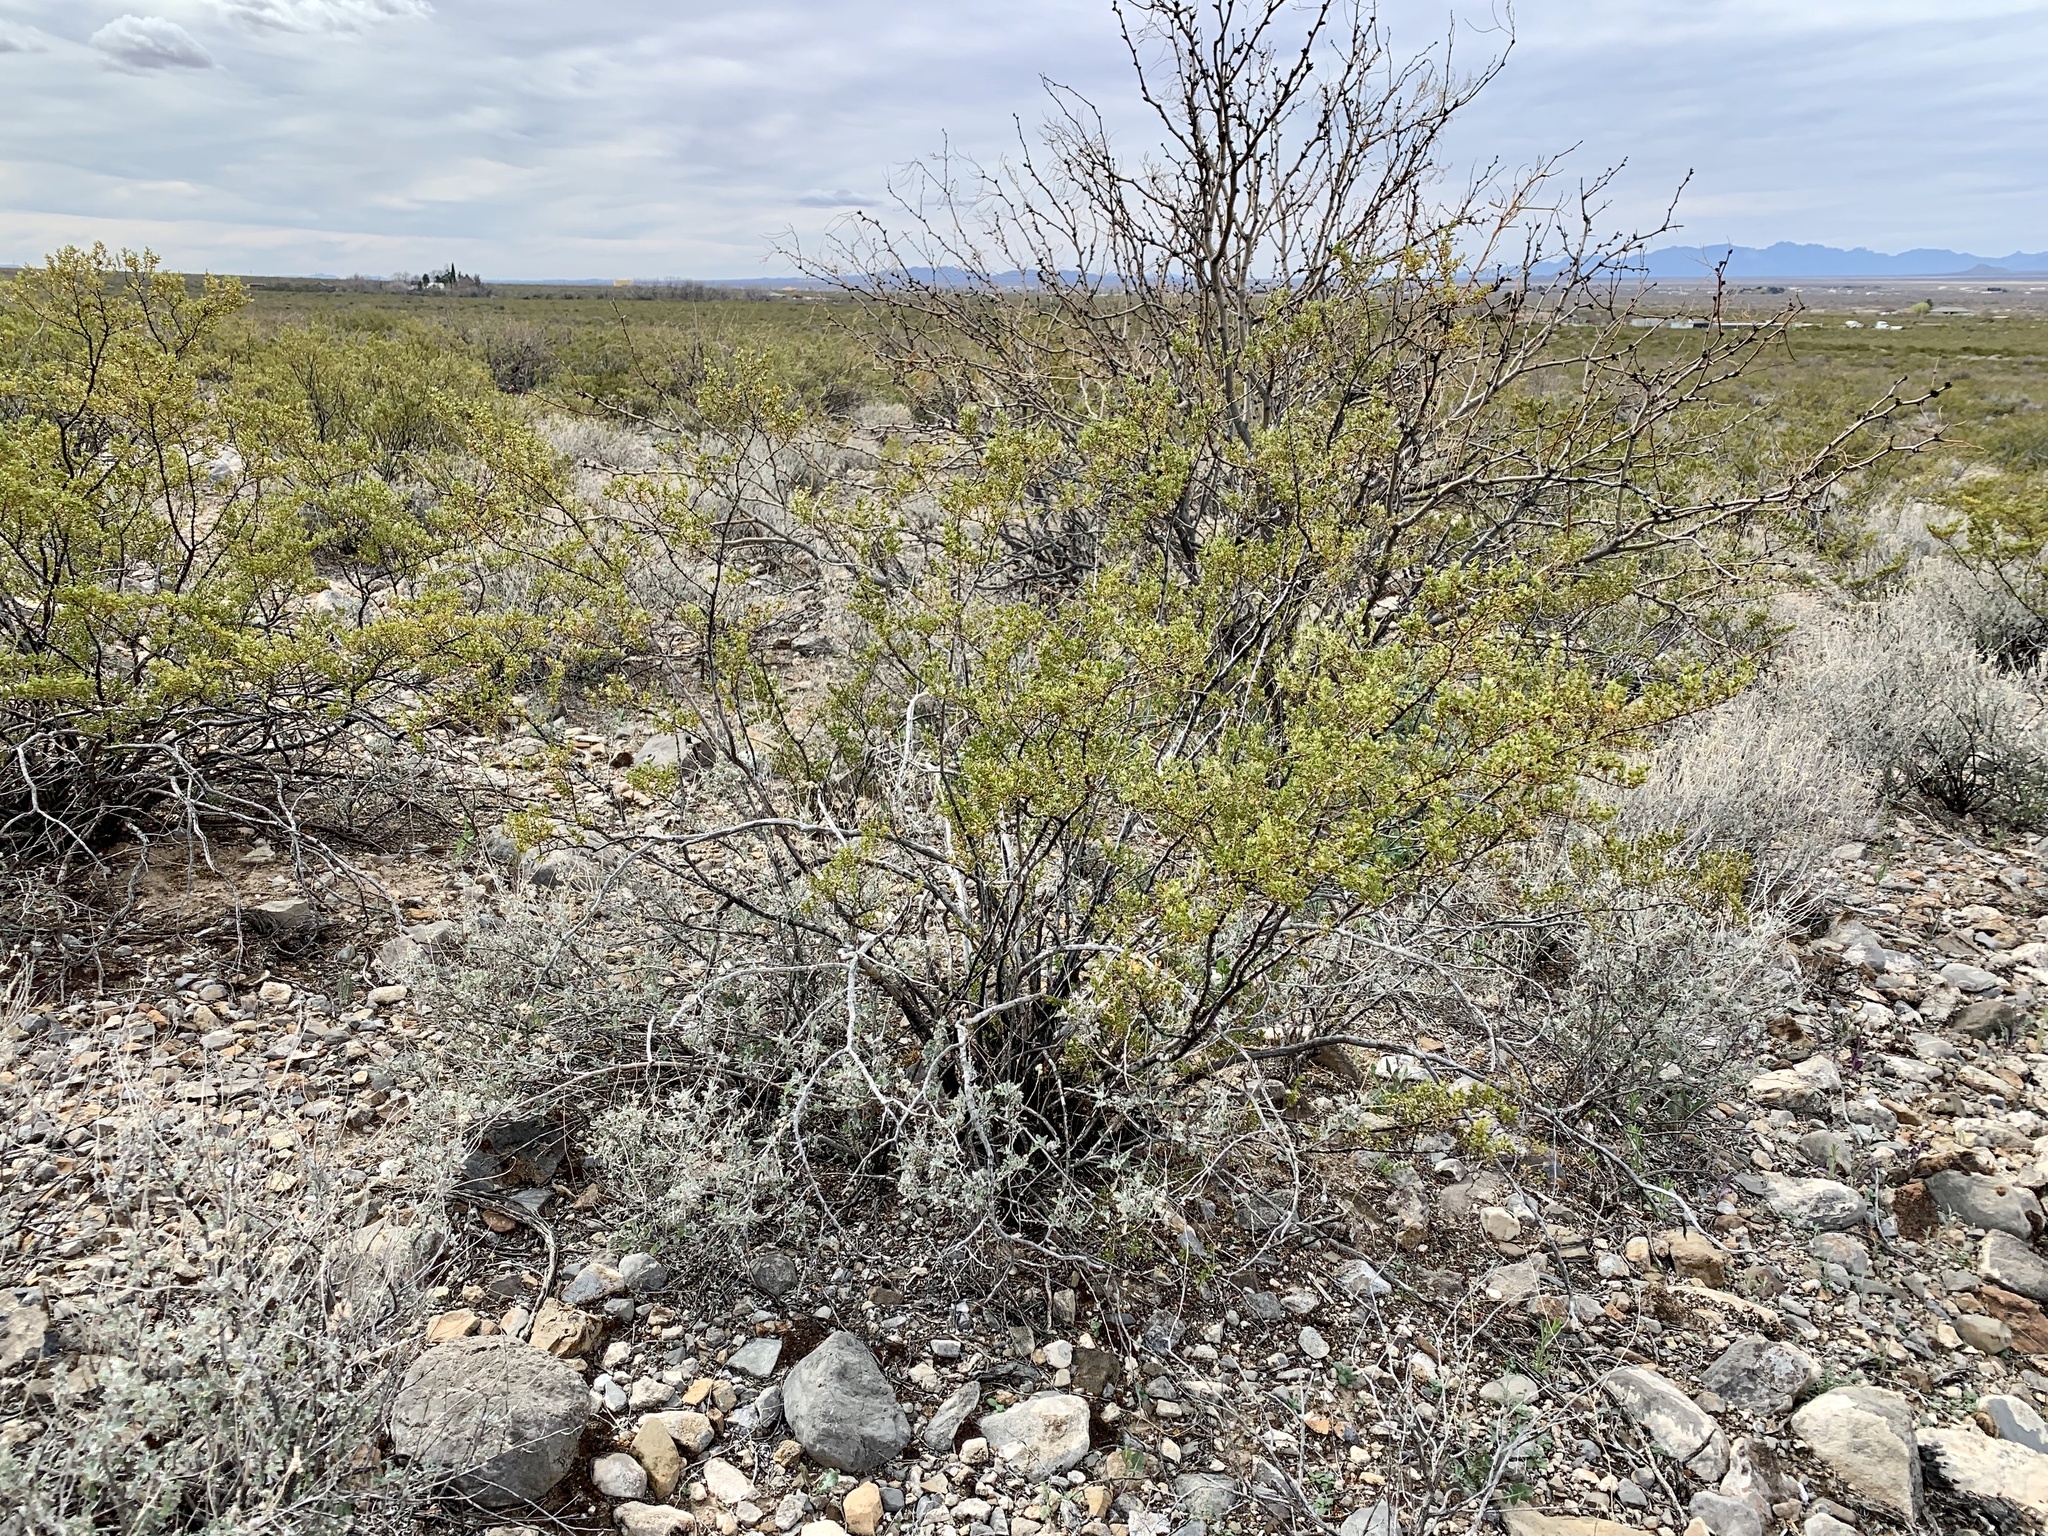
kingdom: Plantae
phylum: Tracheophyta
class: Magnoliopsida
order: Zygophyllales
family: Zygophyllaceae
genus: Larrea
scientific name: Larrea tridentata
